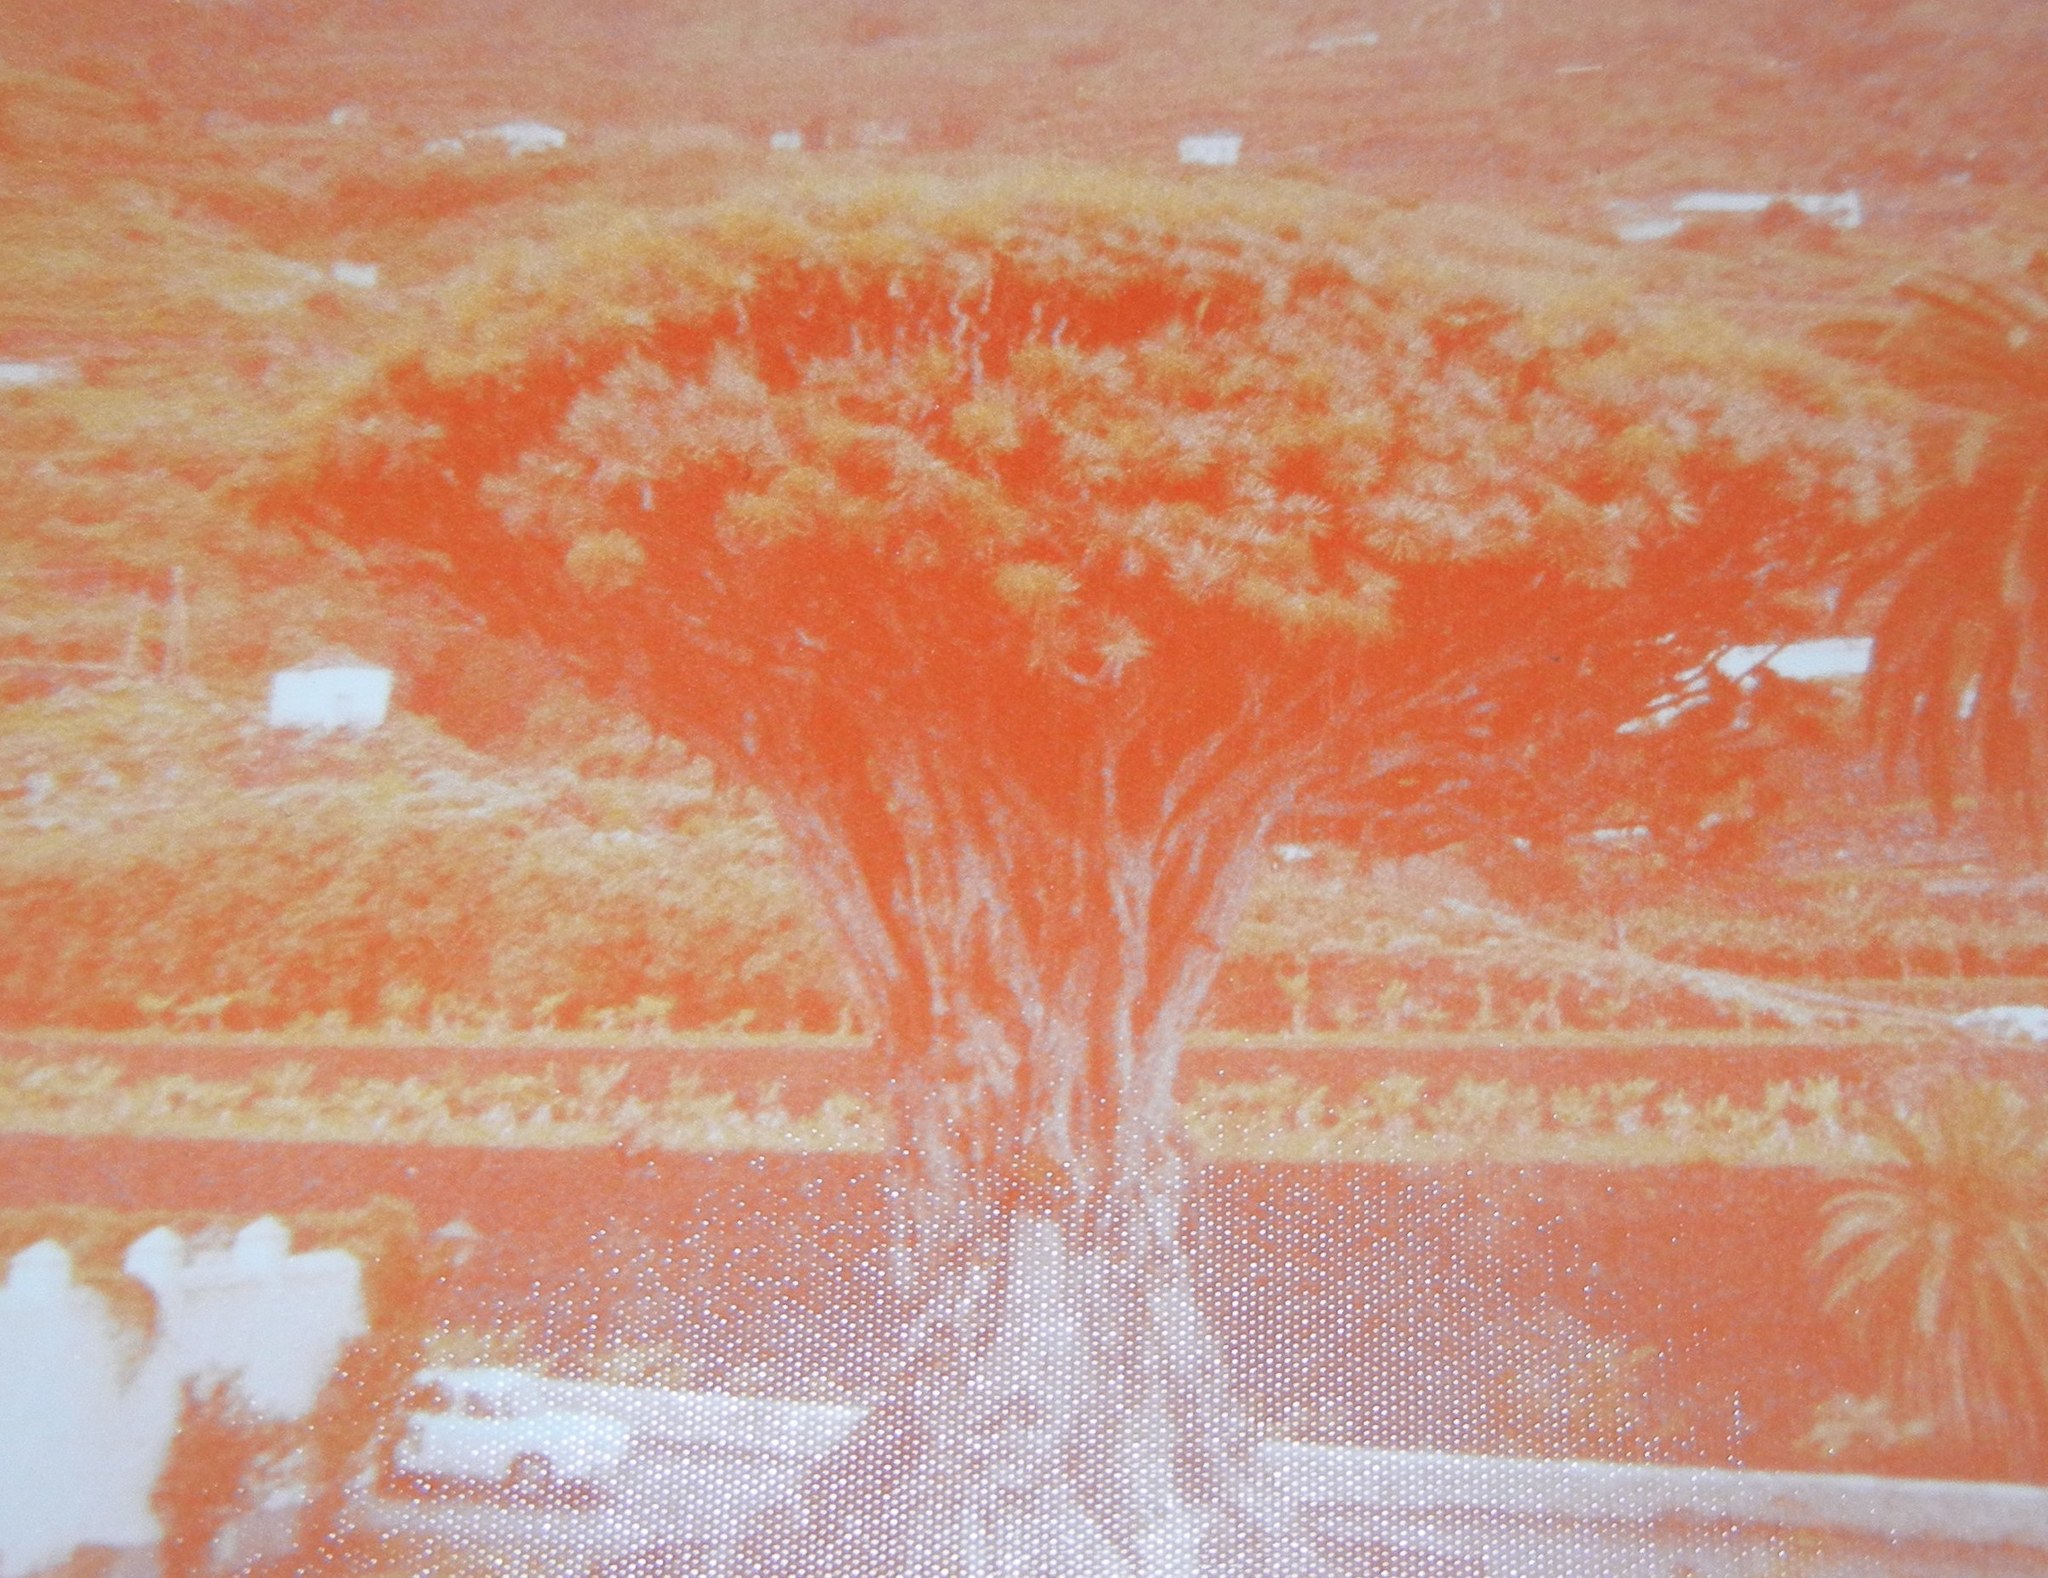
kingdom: Plantae
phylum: Tracheophyta
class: Liliopsida
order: Asparagales
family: Asparagaceae
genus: Dracaena
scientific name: Dracaena draco
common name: Canary island dragon tree
